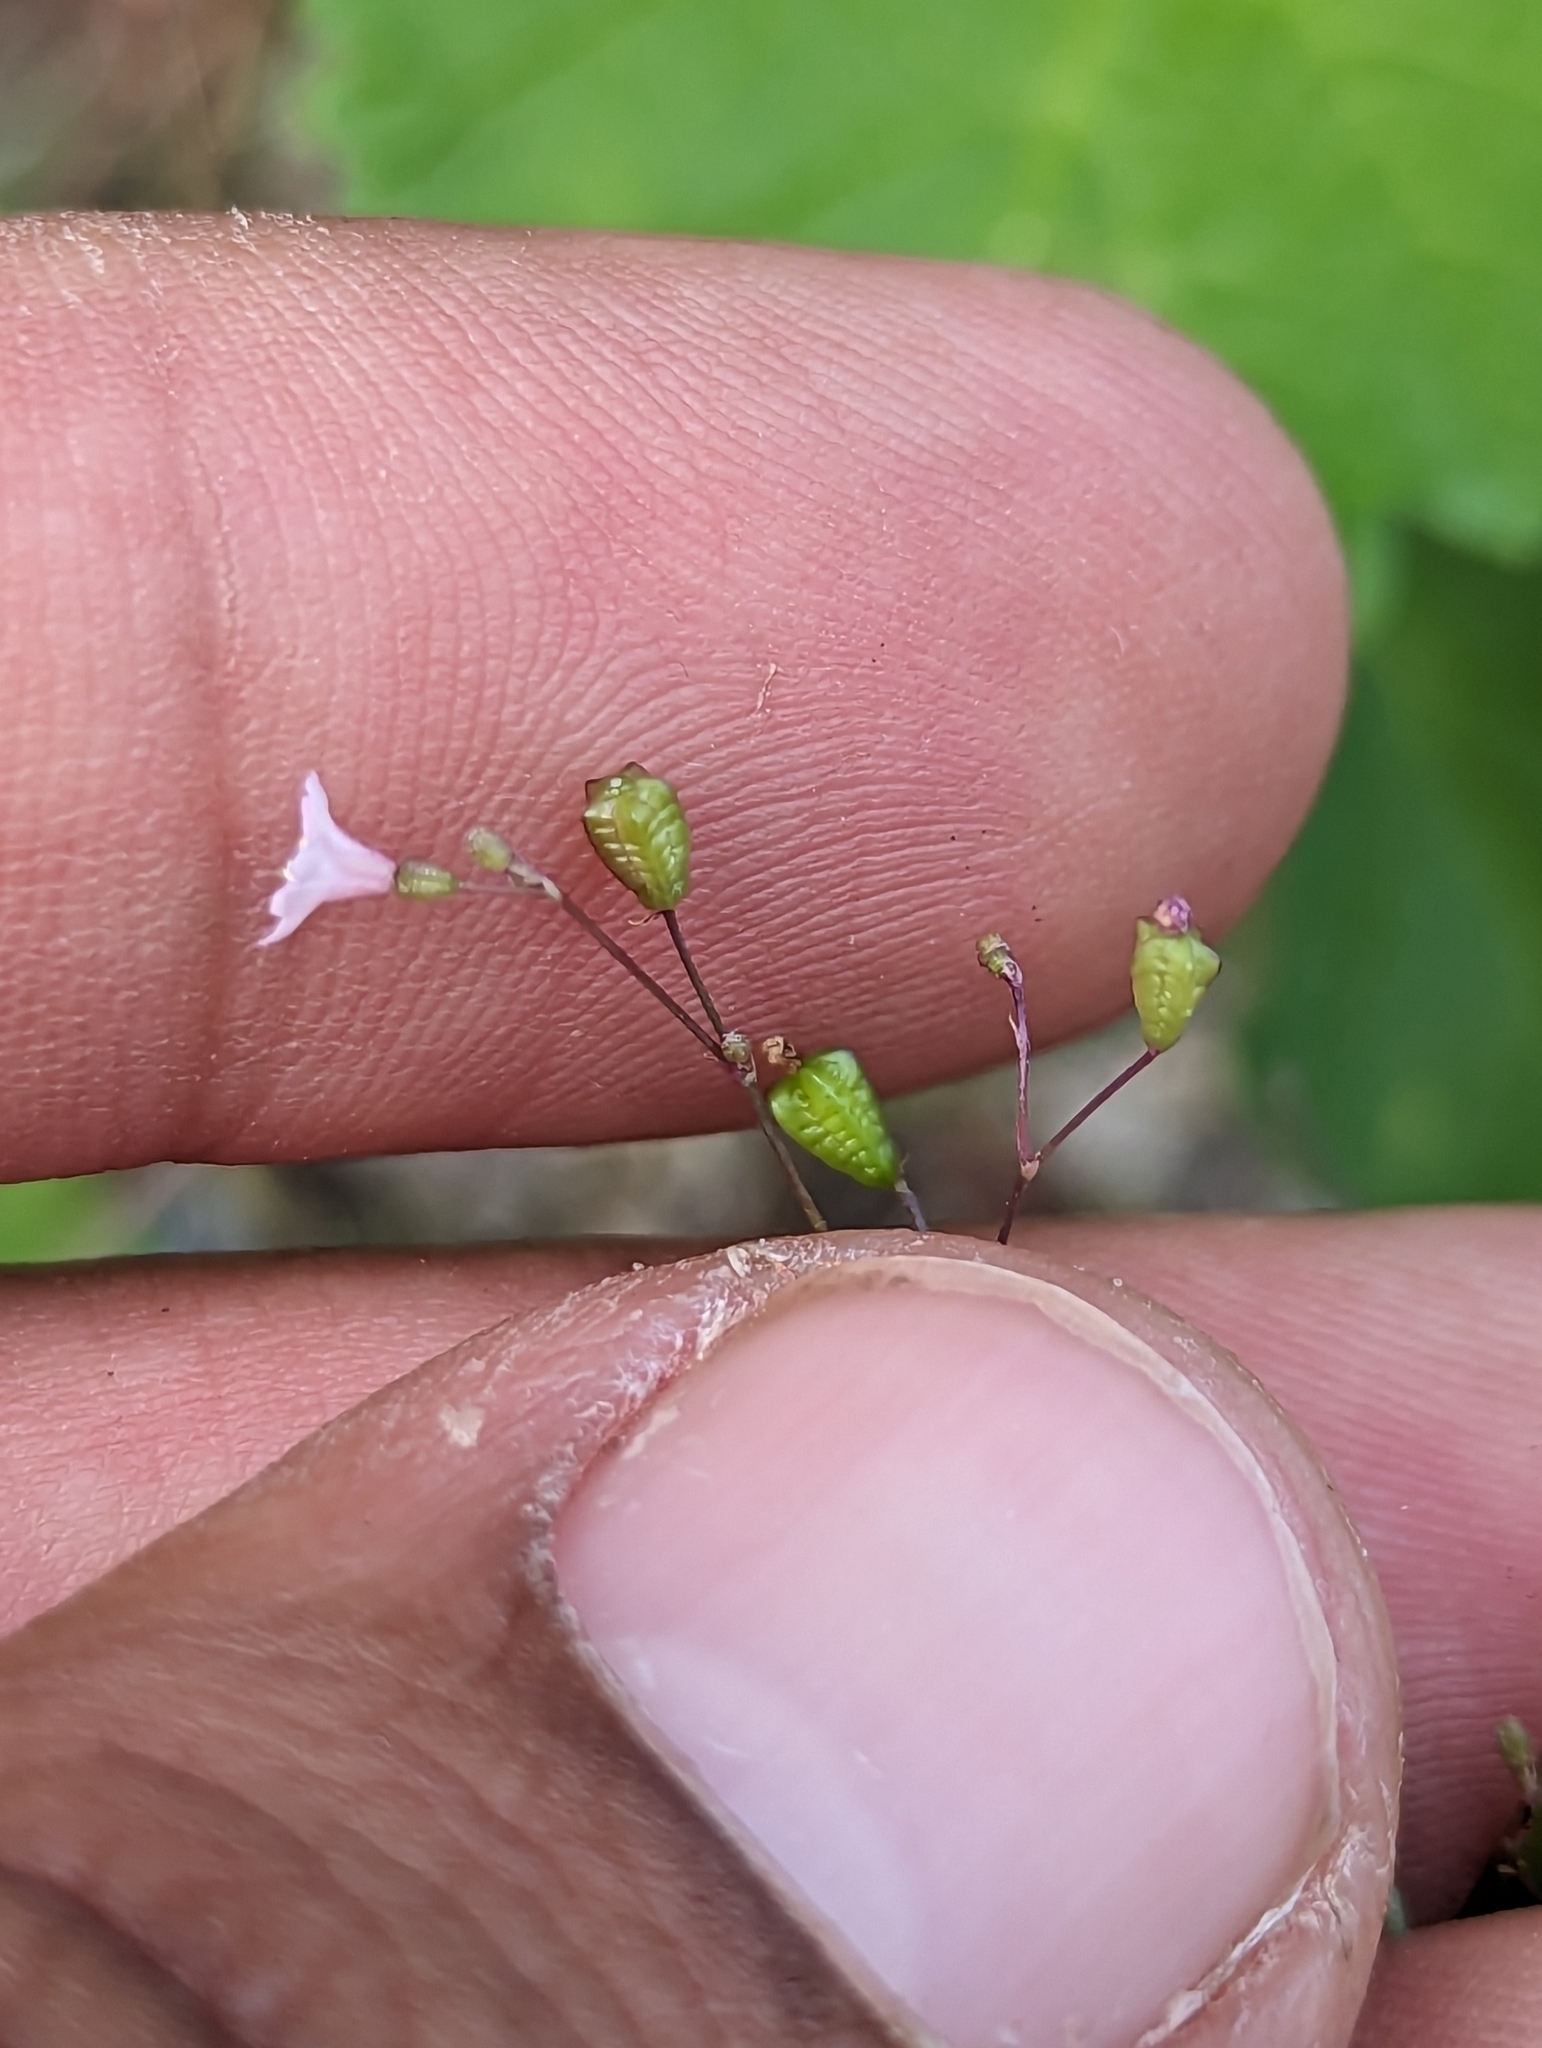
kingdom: Plantae
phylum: Tracheophyta
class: Magnoliopsida
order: Caryophyllales
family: Nyctaginaceae
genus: Boerhavia
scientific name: Boerhavia maculata
